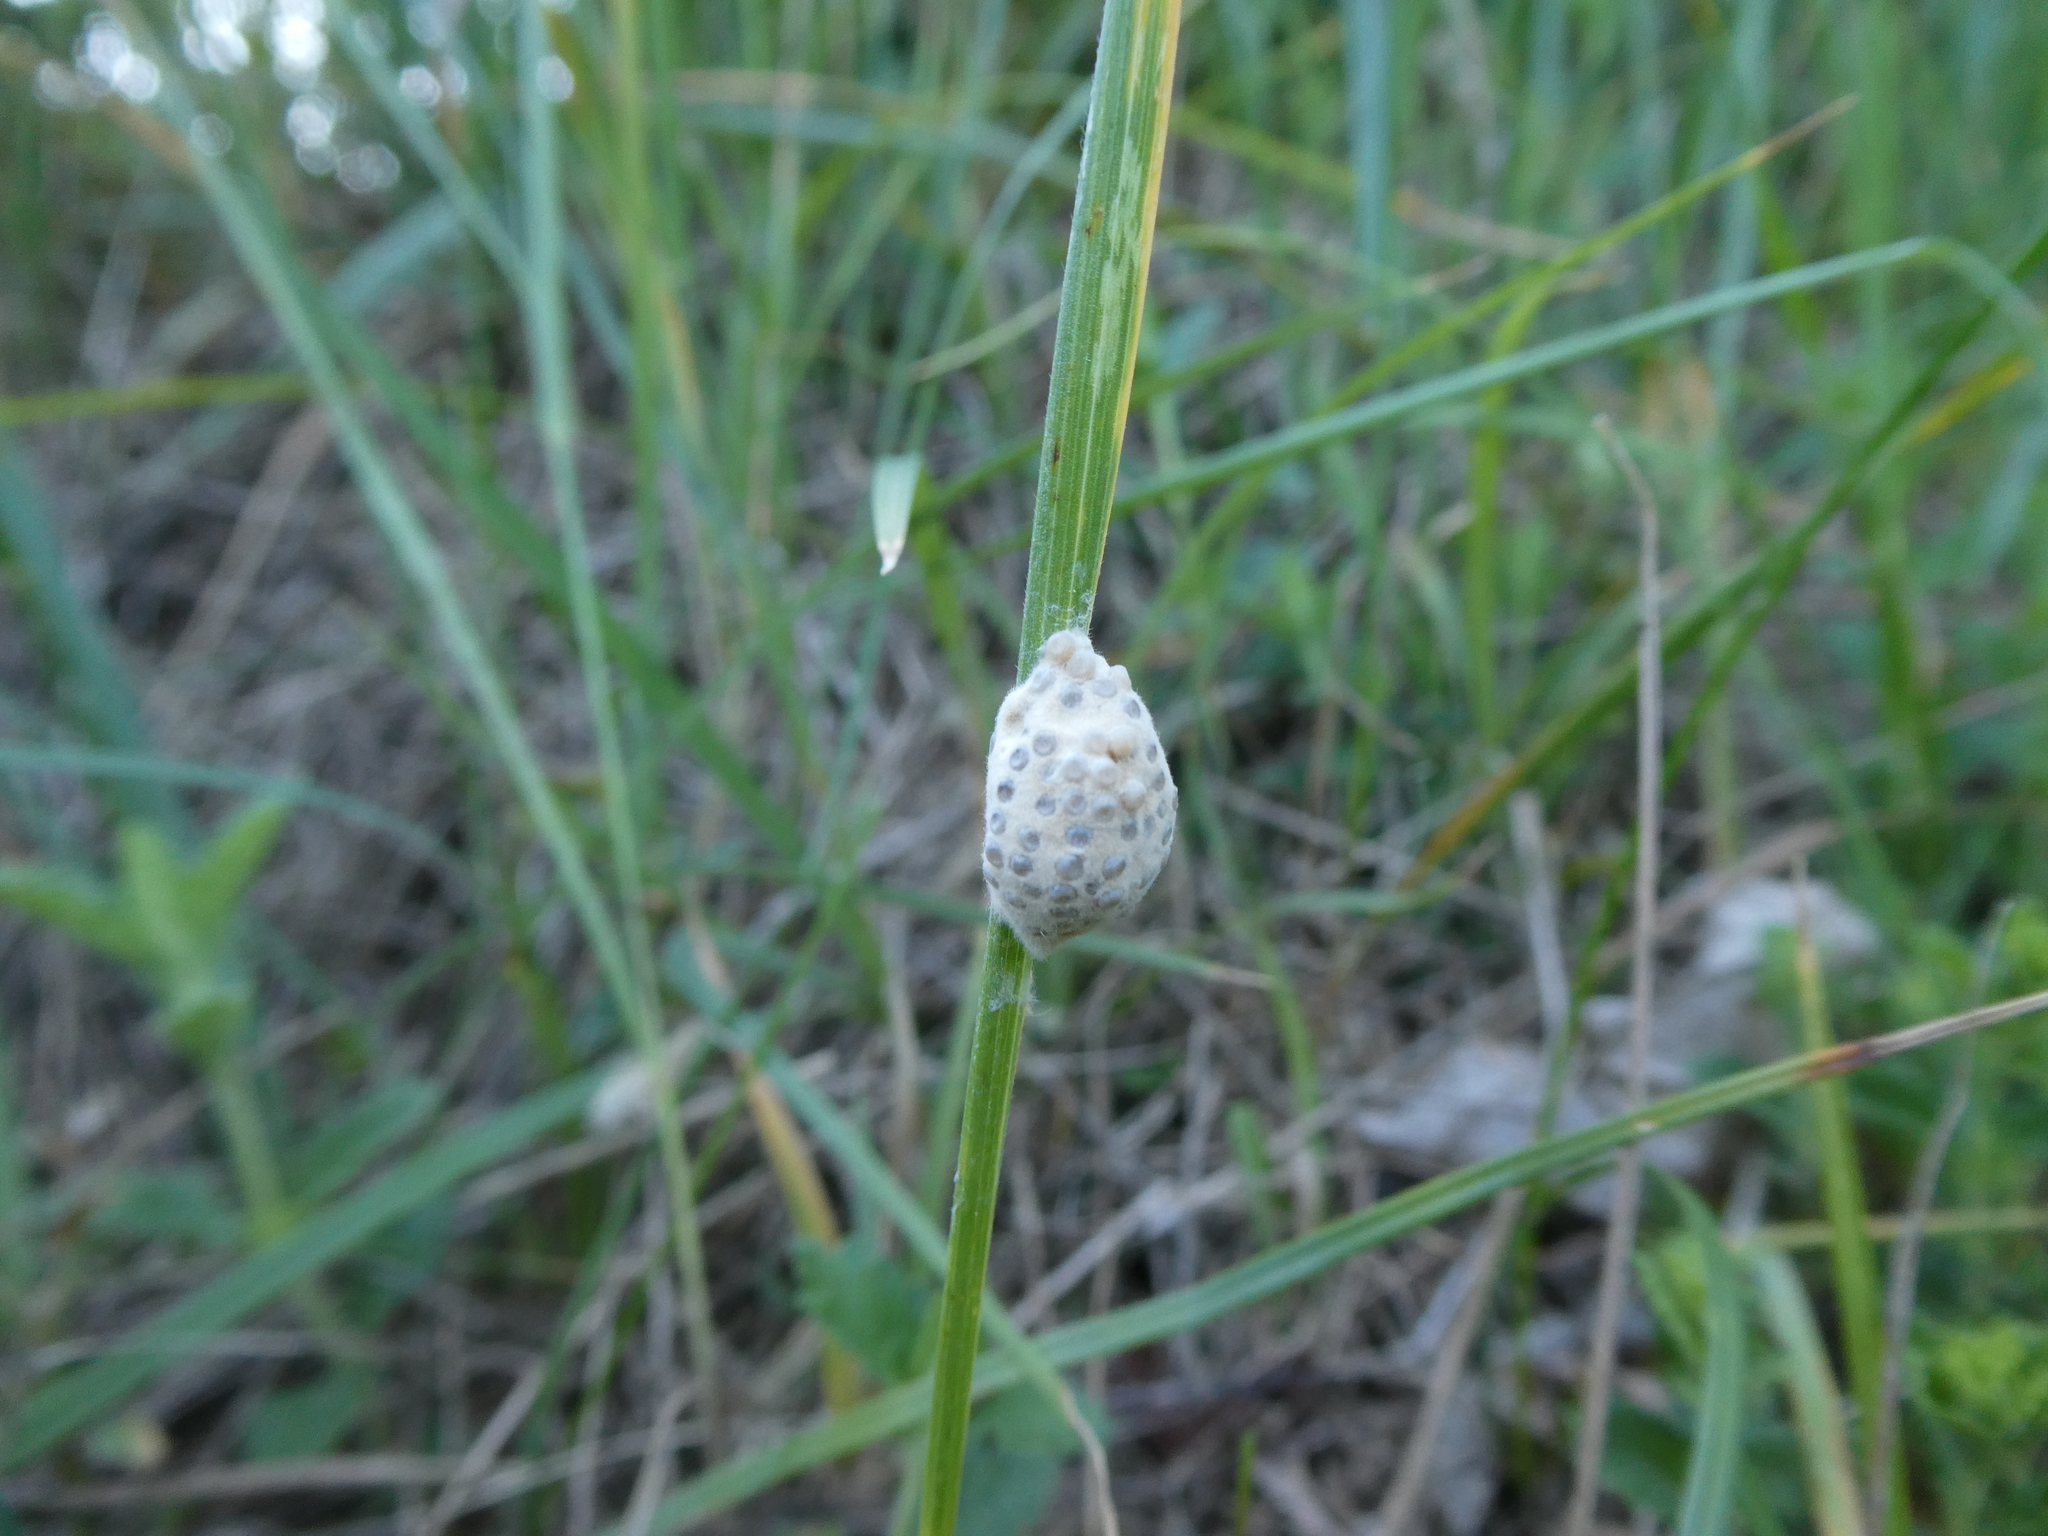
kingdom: Animalia
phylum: Arthropoda
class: Insecta
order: Lepidoptera
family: Erebidae
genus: Penthophera
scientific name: Penthophera morio
